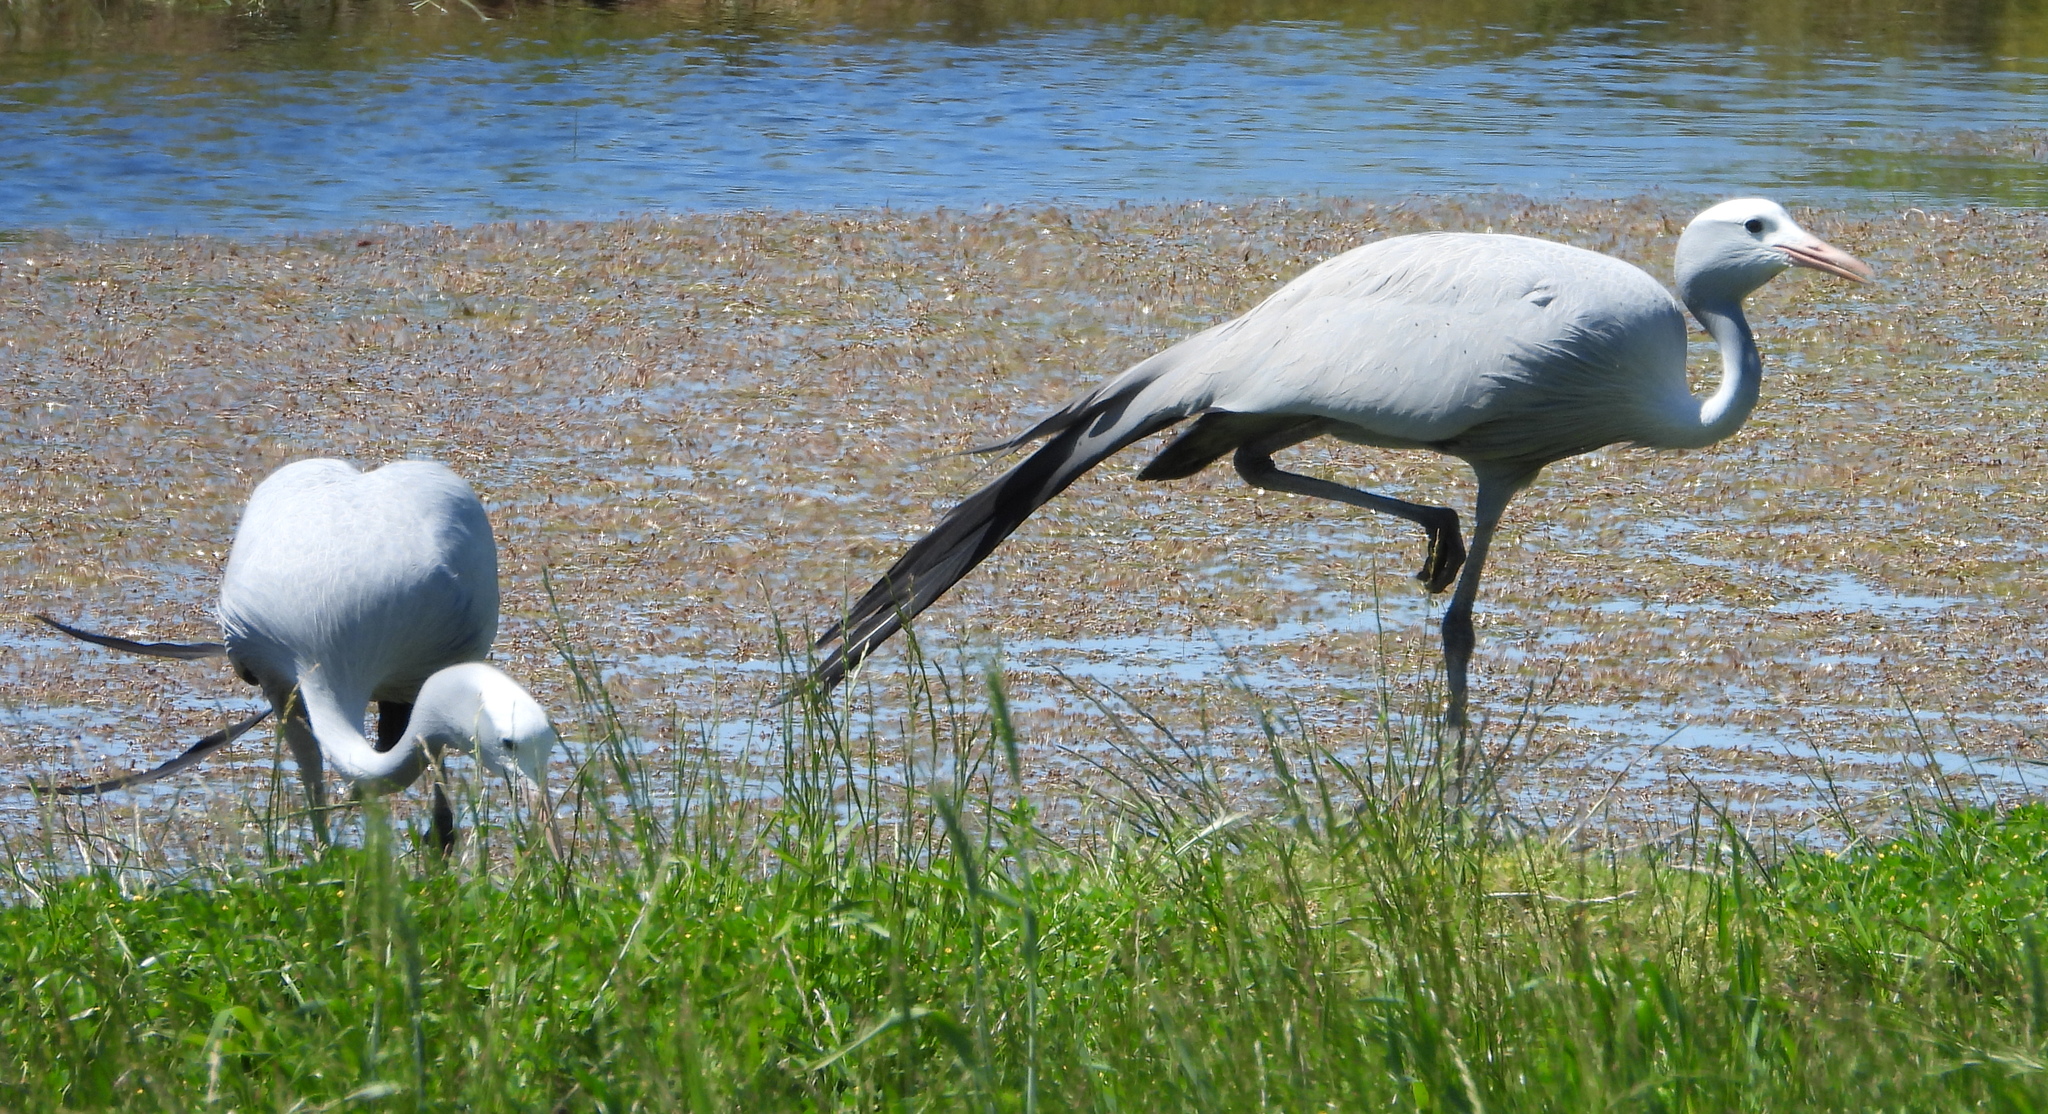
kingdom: Animalia
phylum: Chordata
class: Aves
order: Gruiformes
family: Gruidae
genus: Anthropoides
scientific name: Anthropoides paradiseus
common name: Blue crane
